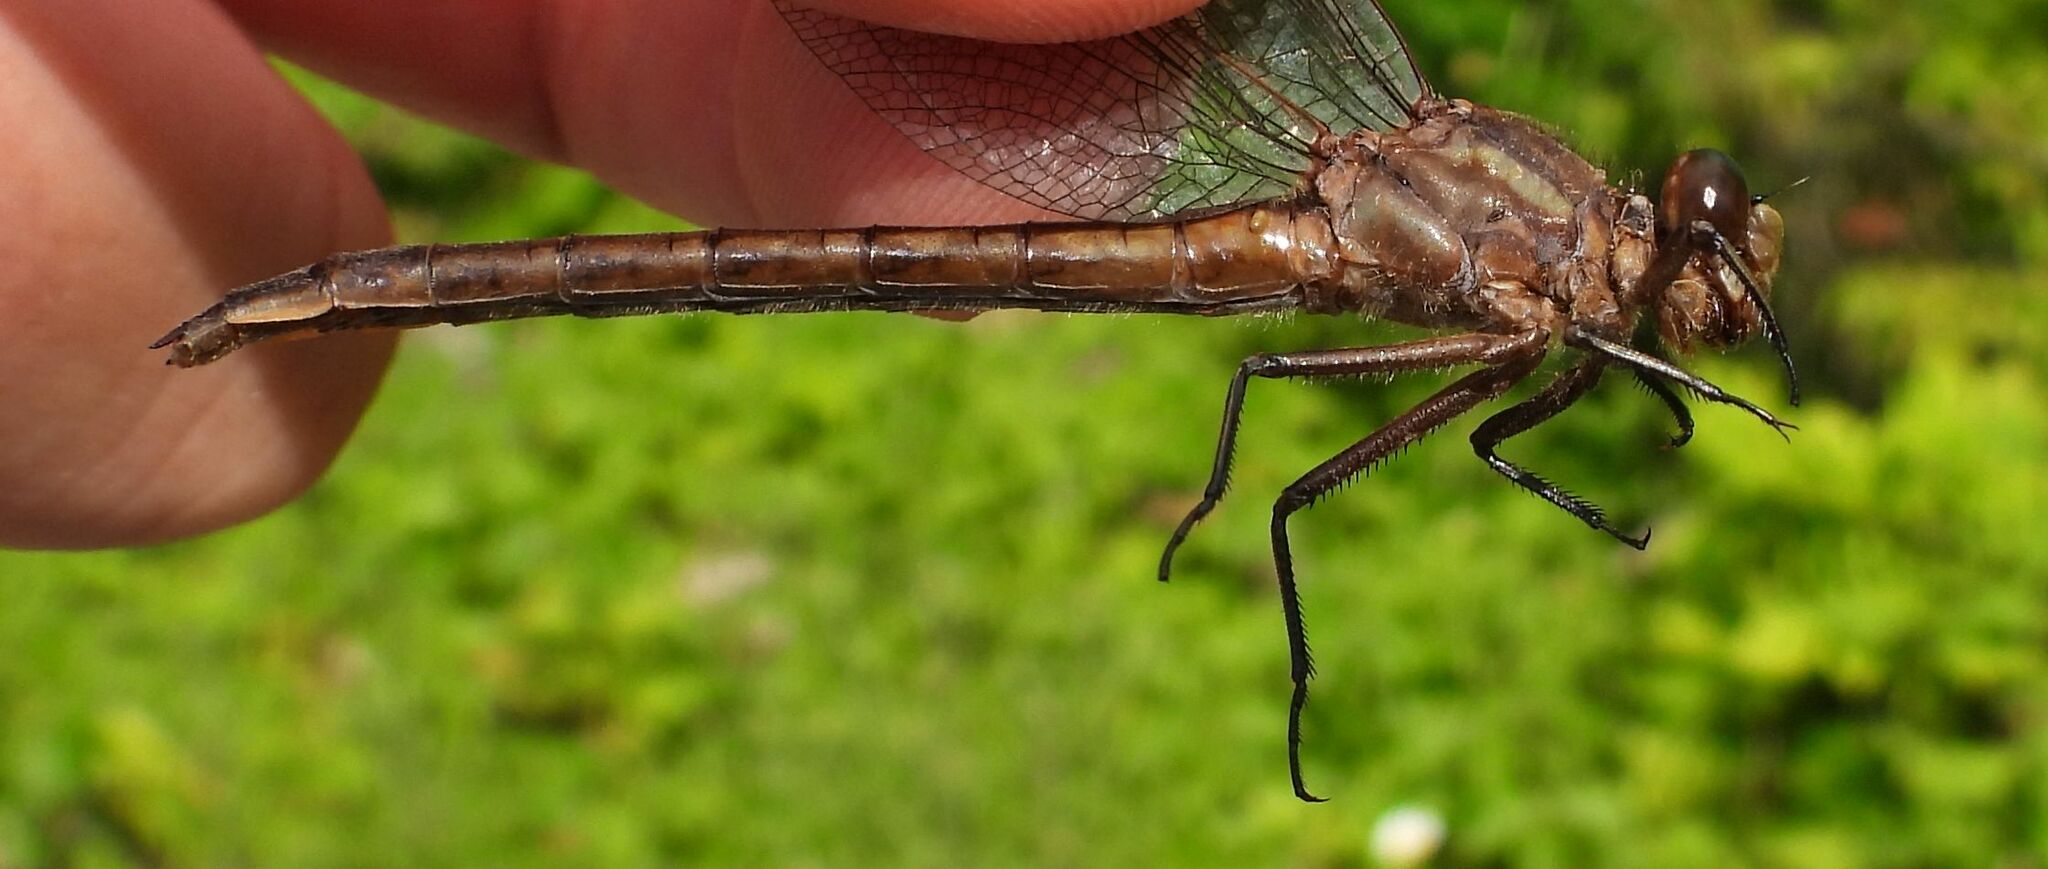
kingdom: Animalia
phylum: Arthropoda
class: Insecta
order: Odonata
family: Gomphidae
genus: Phanogomphus
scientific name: Phanogomphus spicatus
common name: Dusky clubtail
